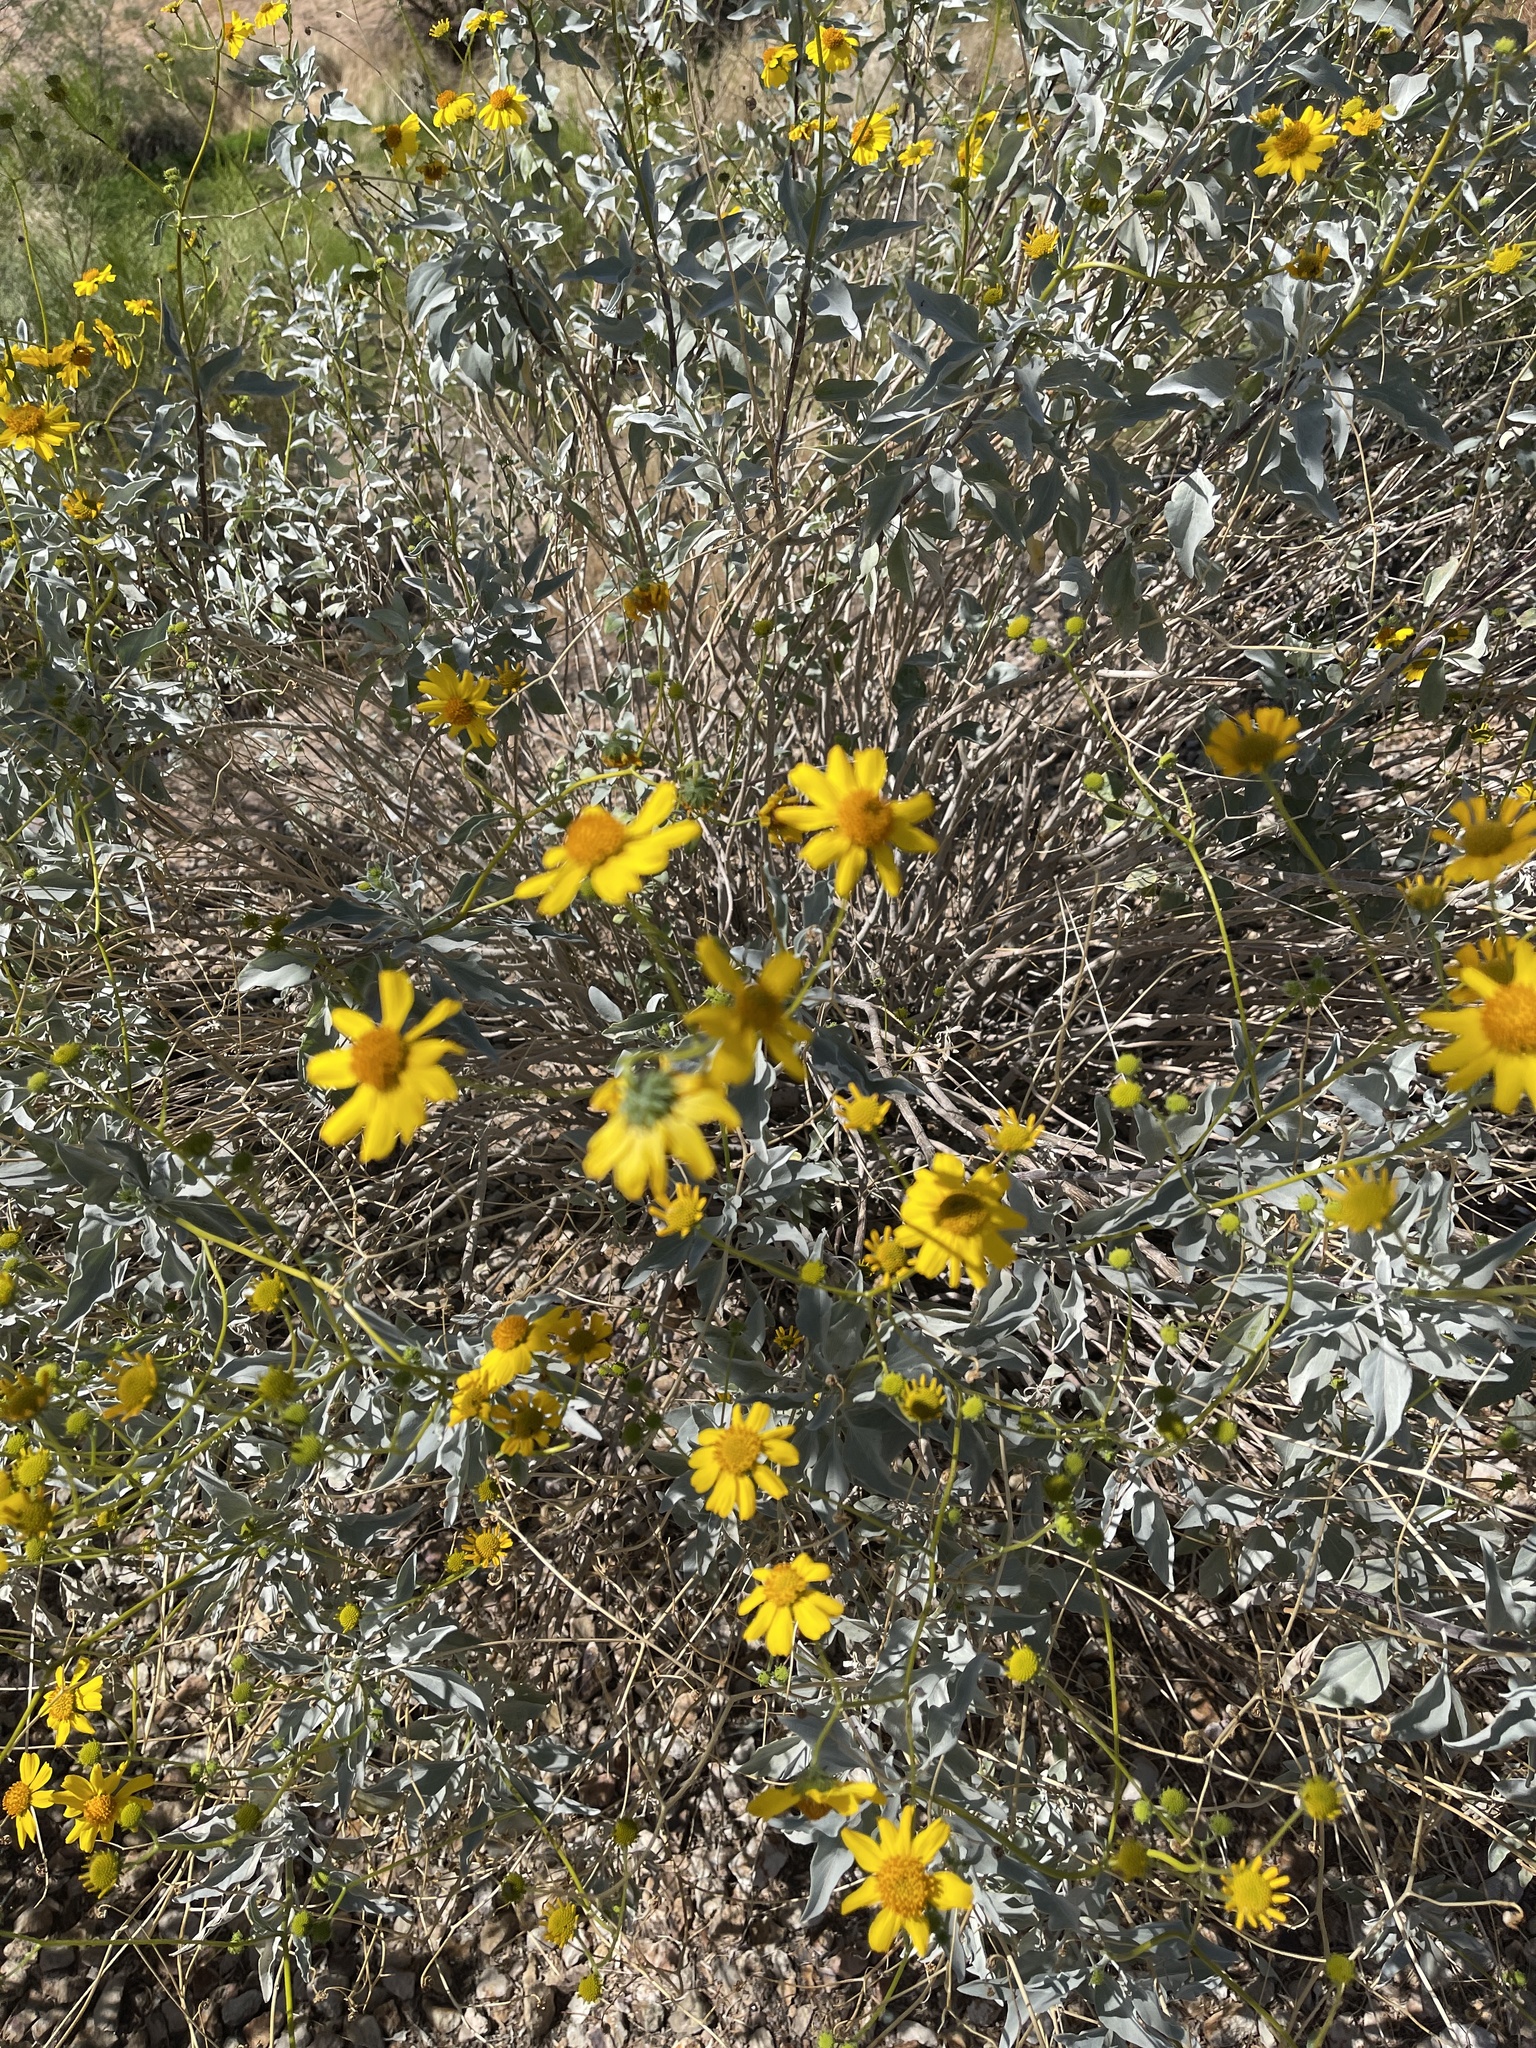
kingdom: Plantae
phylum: Tracheophyta
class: Magnoliopsida
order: Asterales
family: Asteraceae
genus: Encelia
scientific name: Encelia farinosa
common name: Brittlebush
